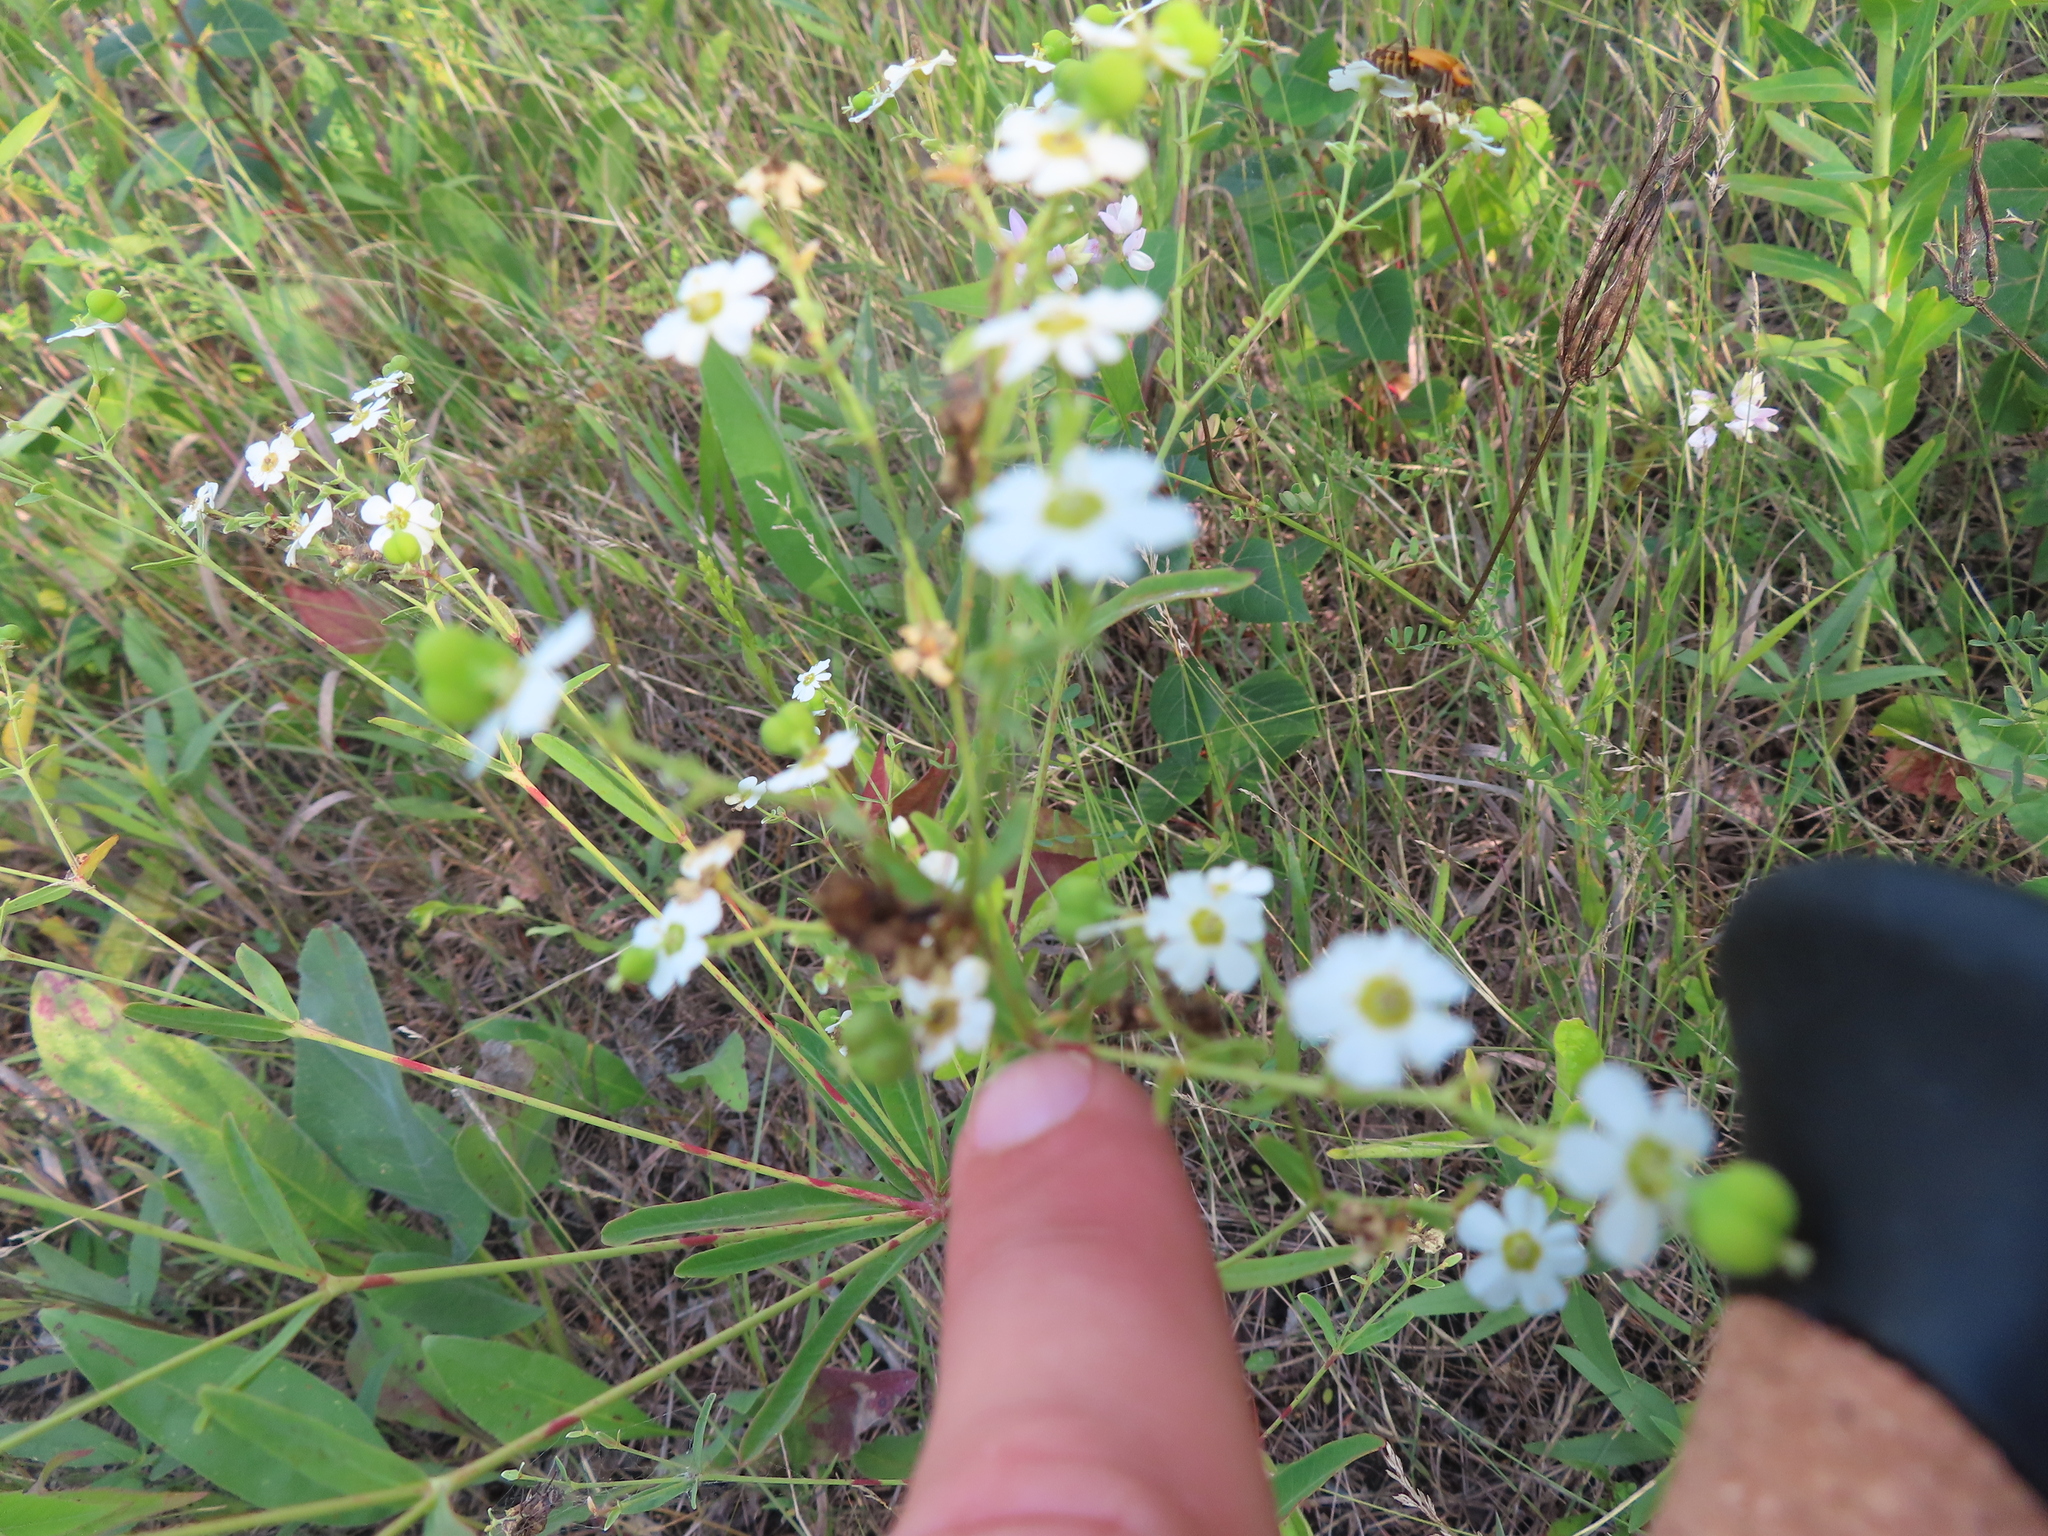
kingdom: Plantae
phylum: Tracheophyta
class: Magnoliopsida
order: Malpighiales
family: Euphorbiaceae
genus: Euphorbia
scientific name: Euphorbia corollata
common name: Flowering spurge
